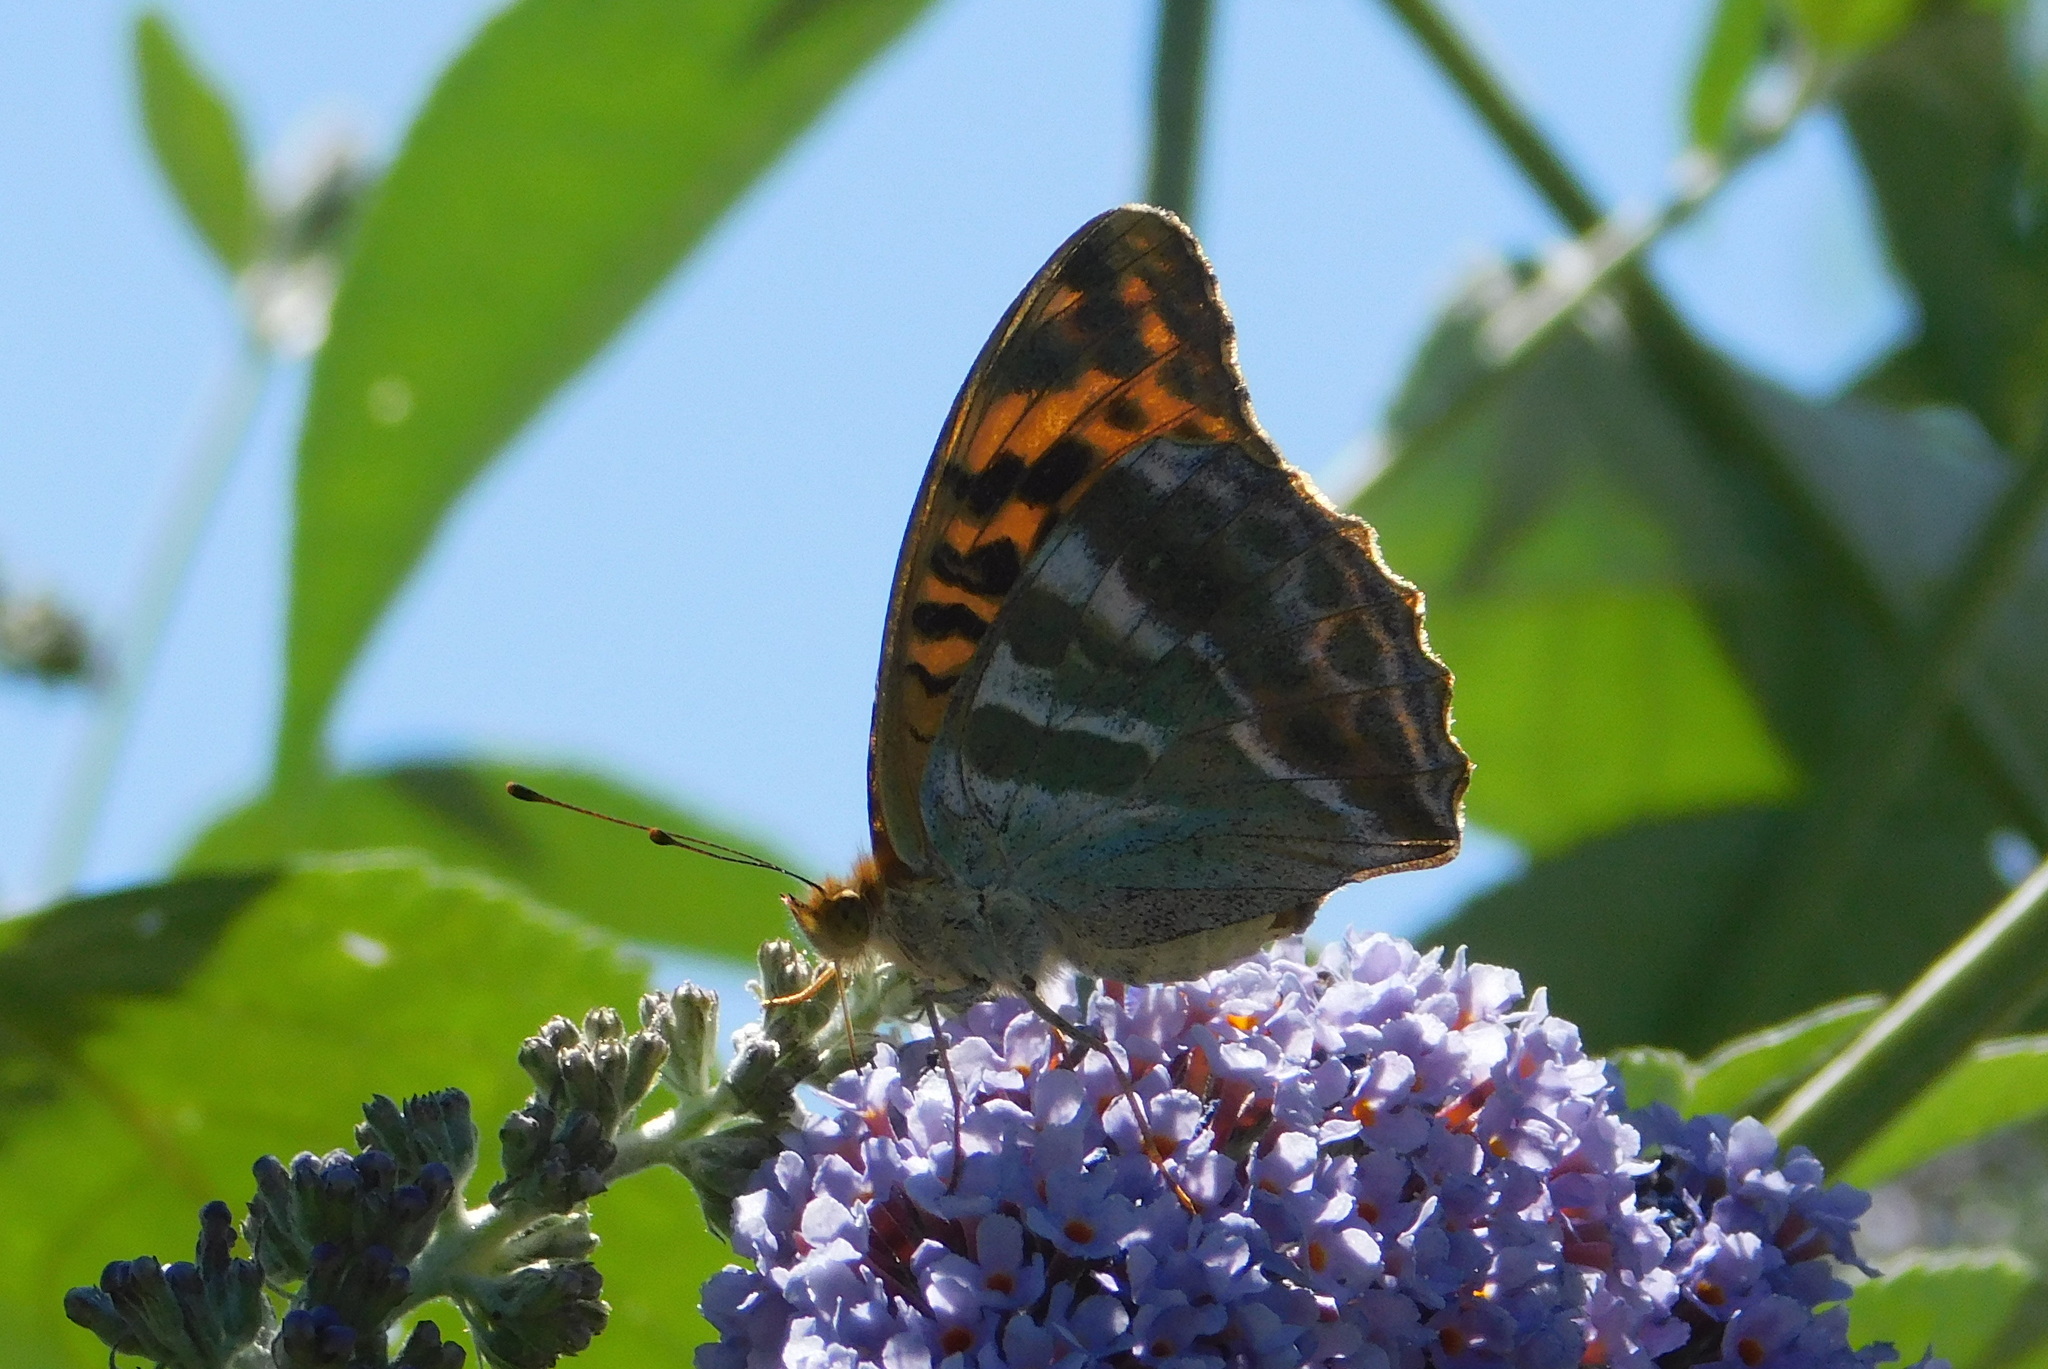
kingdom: Animalia
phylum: Arthropoda
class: Insecta
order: Lepidoptera
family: Nymphalidae
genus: Argynnis
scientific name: Argynnis paphia
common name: Silver-washed fritillary
